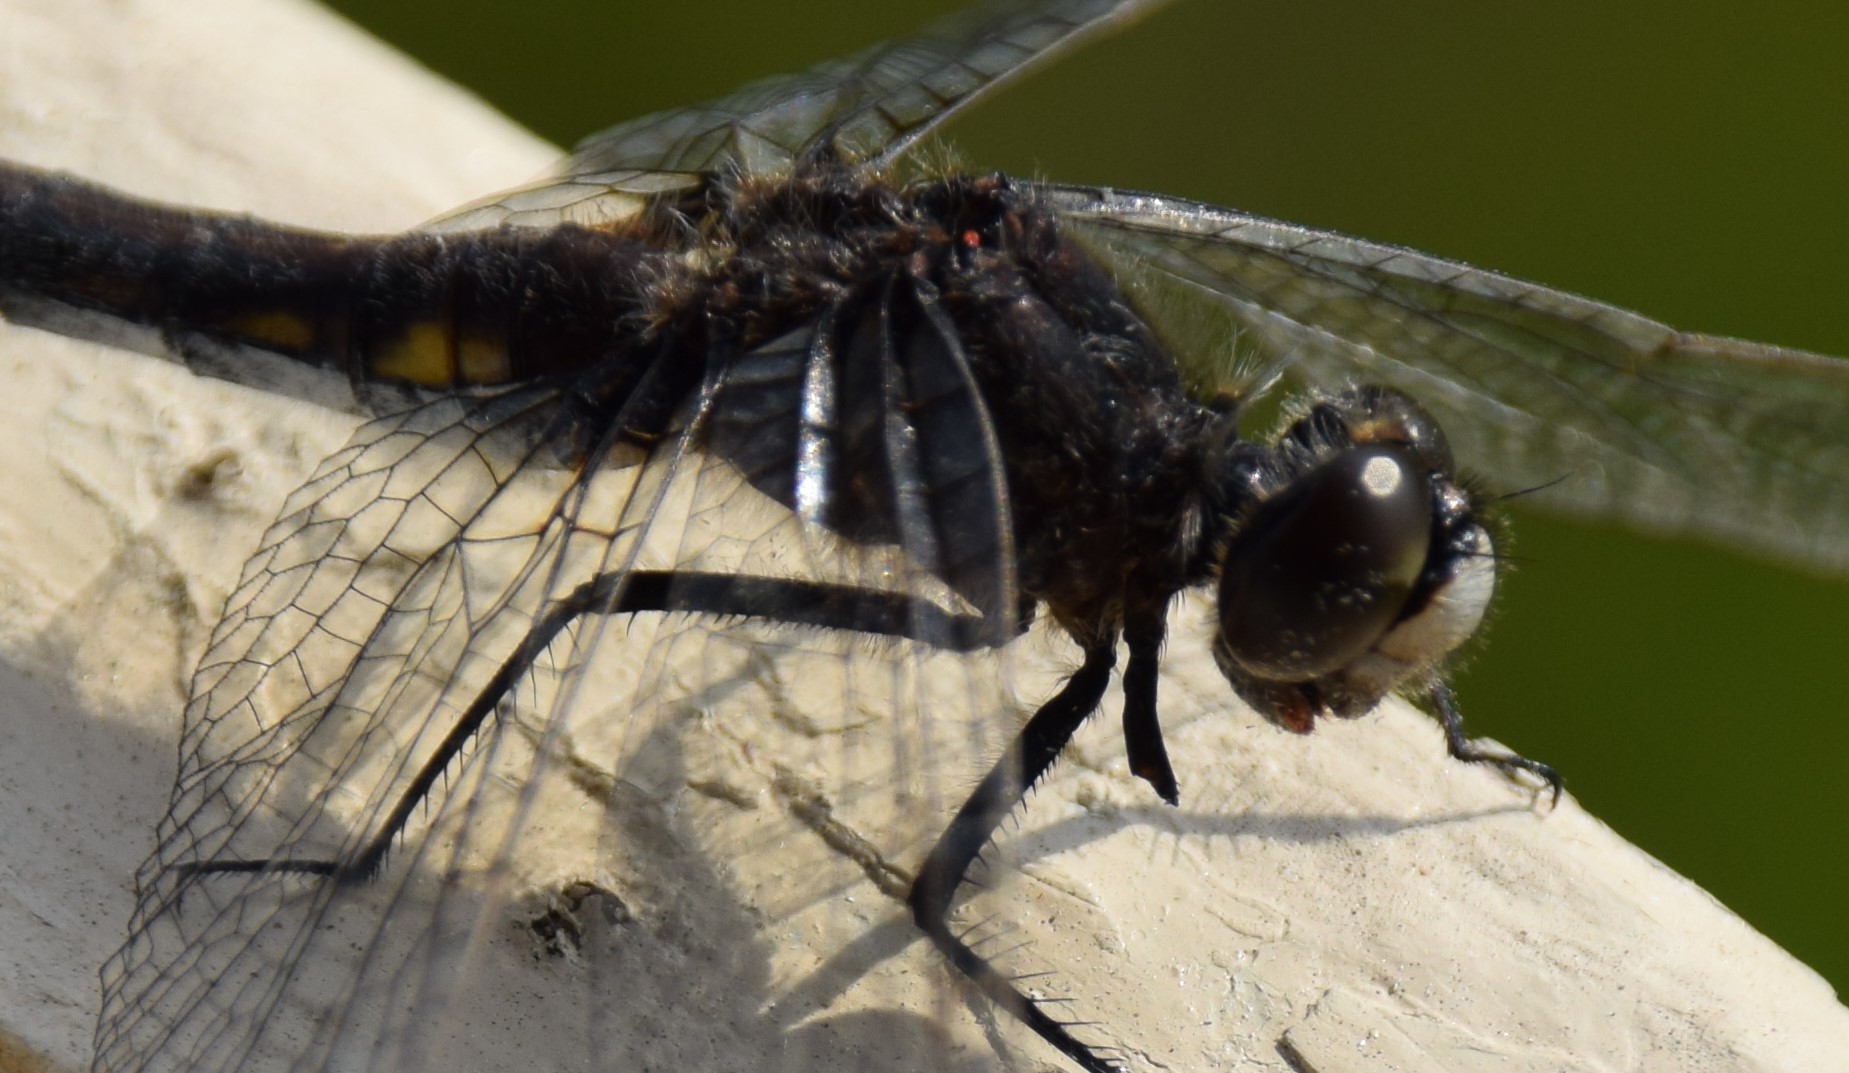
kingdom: Animalia
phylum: Arthropoda
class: Insecta
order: Odonata
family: Libellulidae
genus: Leucorrhinia
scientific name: Leucorrhinia intacta
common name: Dot-tailed whiteface
